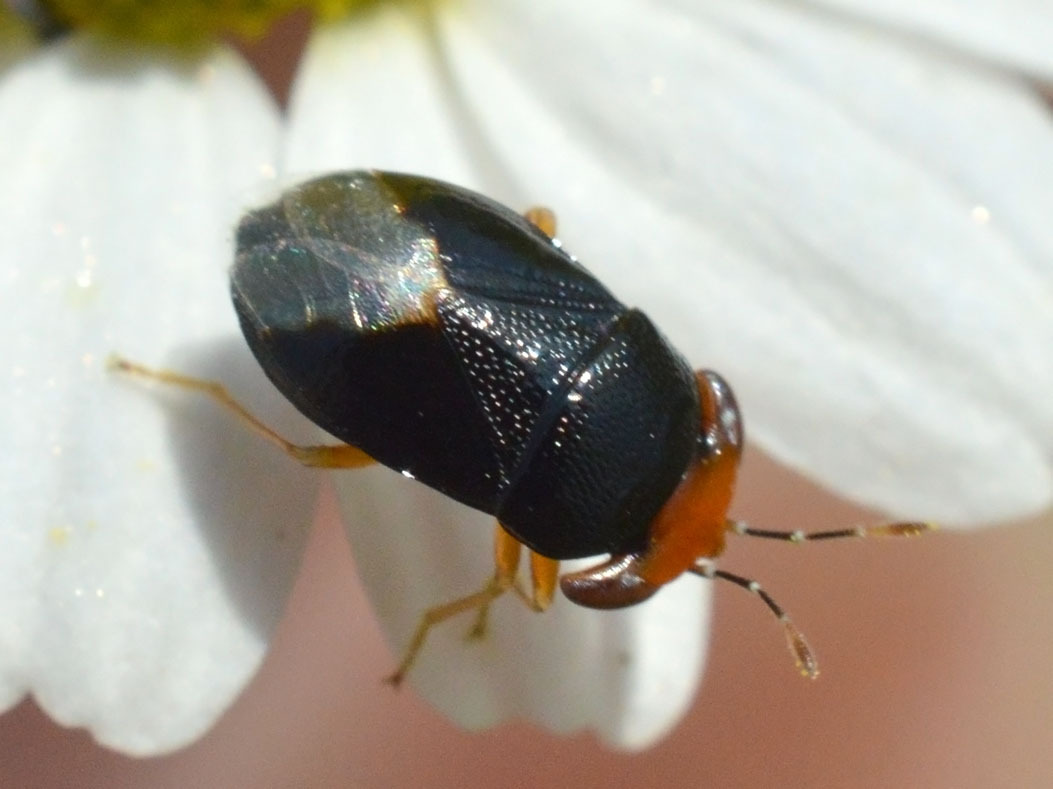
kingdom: Animalia
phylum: Arthropoda
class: Insecta
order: Hemiptera
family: Geocoridae
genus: Geocoris
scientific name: Geocoris erythrocephala
